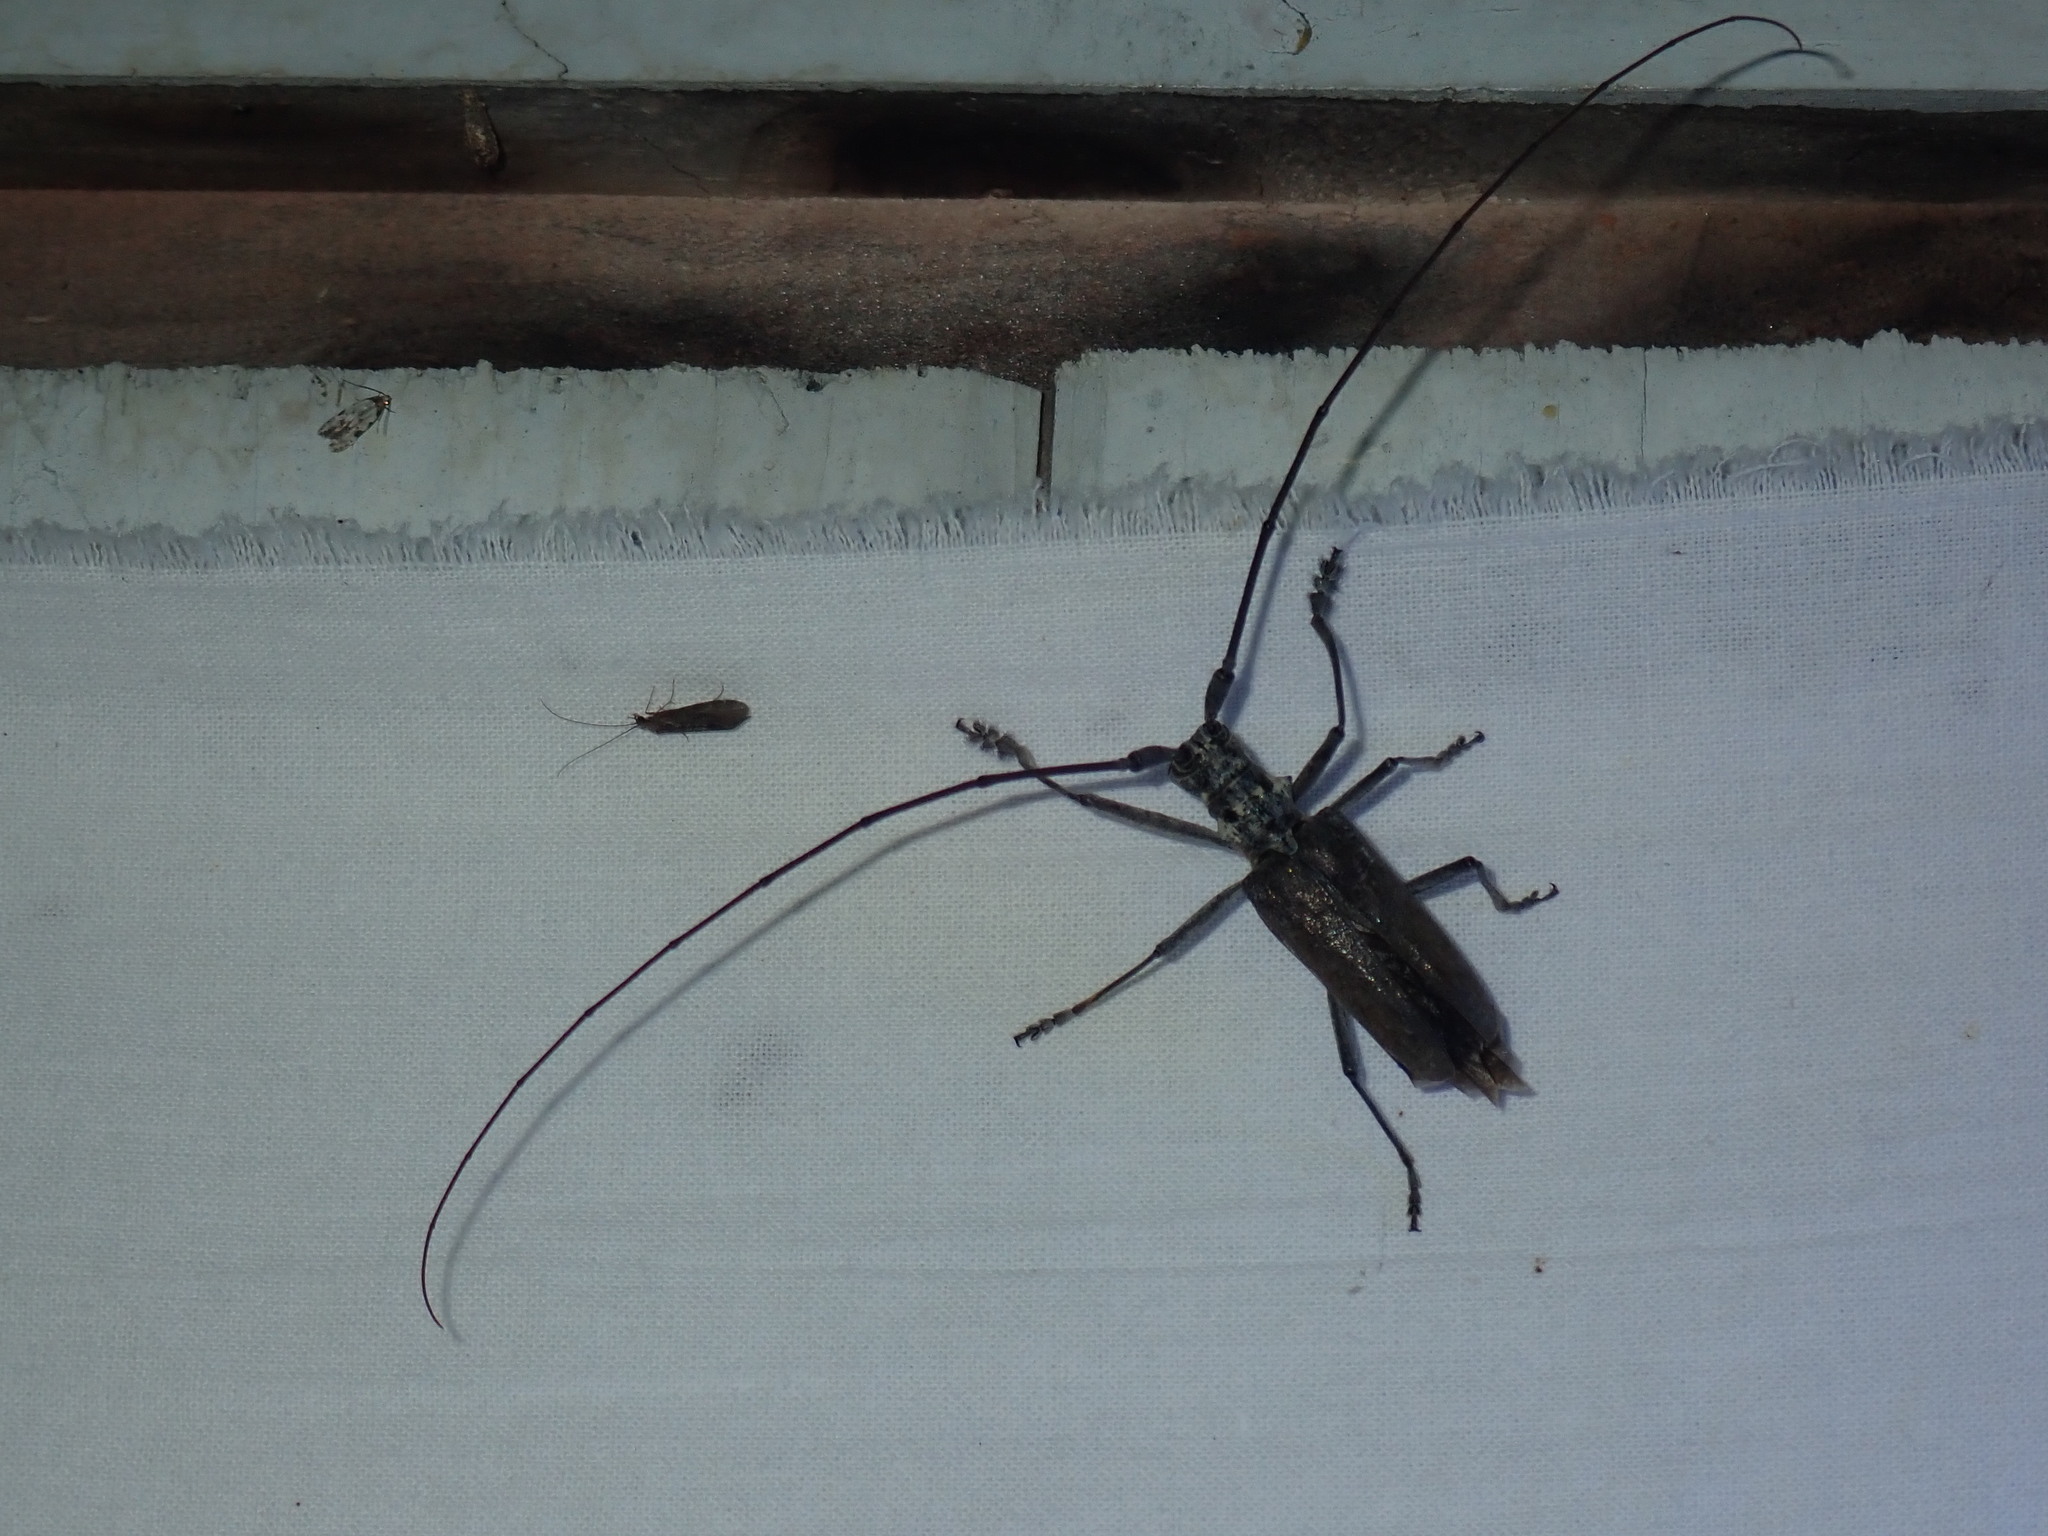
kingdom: Animalia
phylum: Arthropoda
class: Insecta
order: Coleoptera
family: Cerambycidae
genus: Monochamus
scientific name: Monochamus notatus
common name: Northeastern pine sawyer beetle
